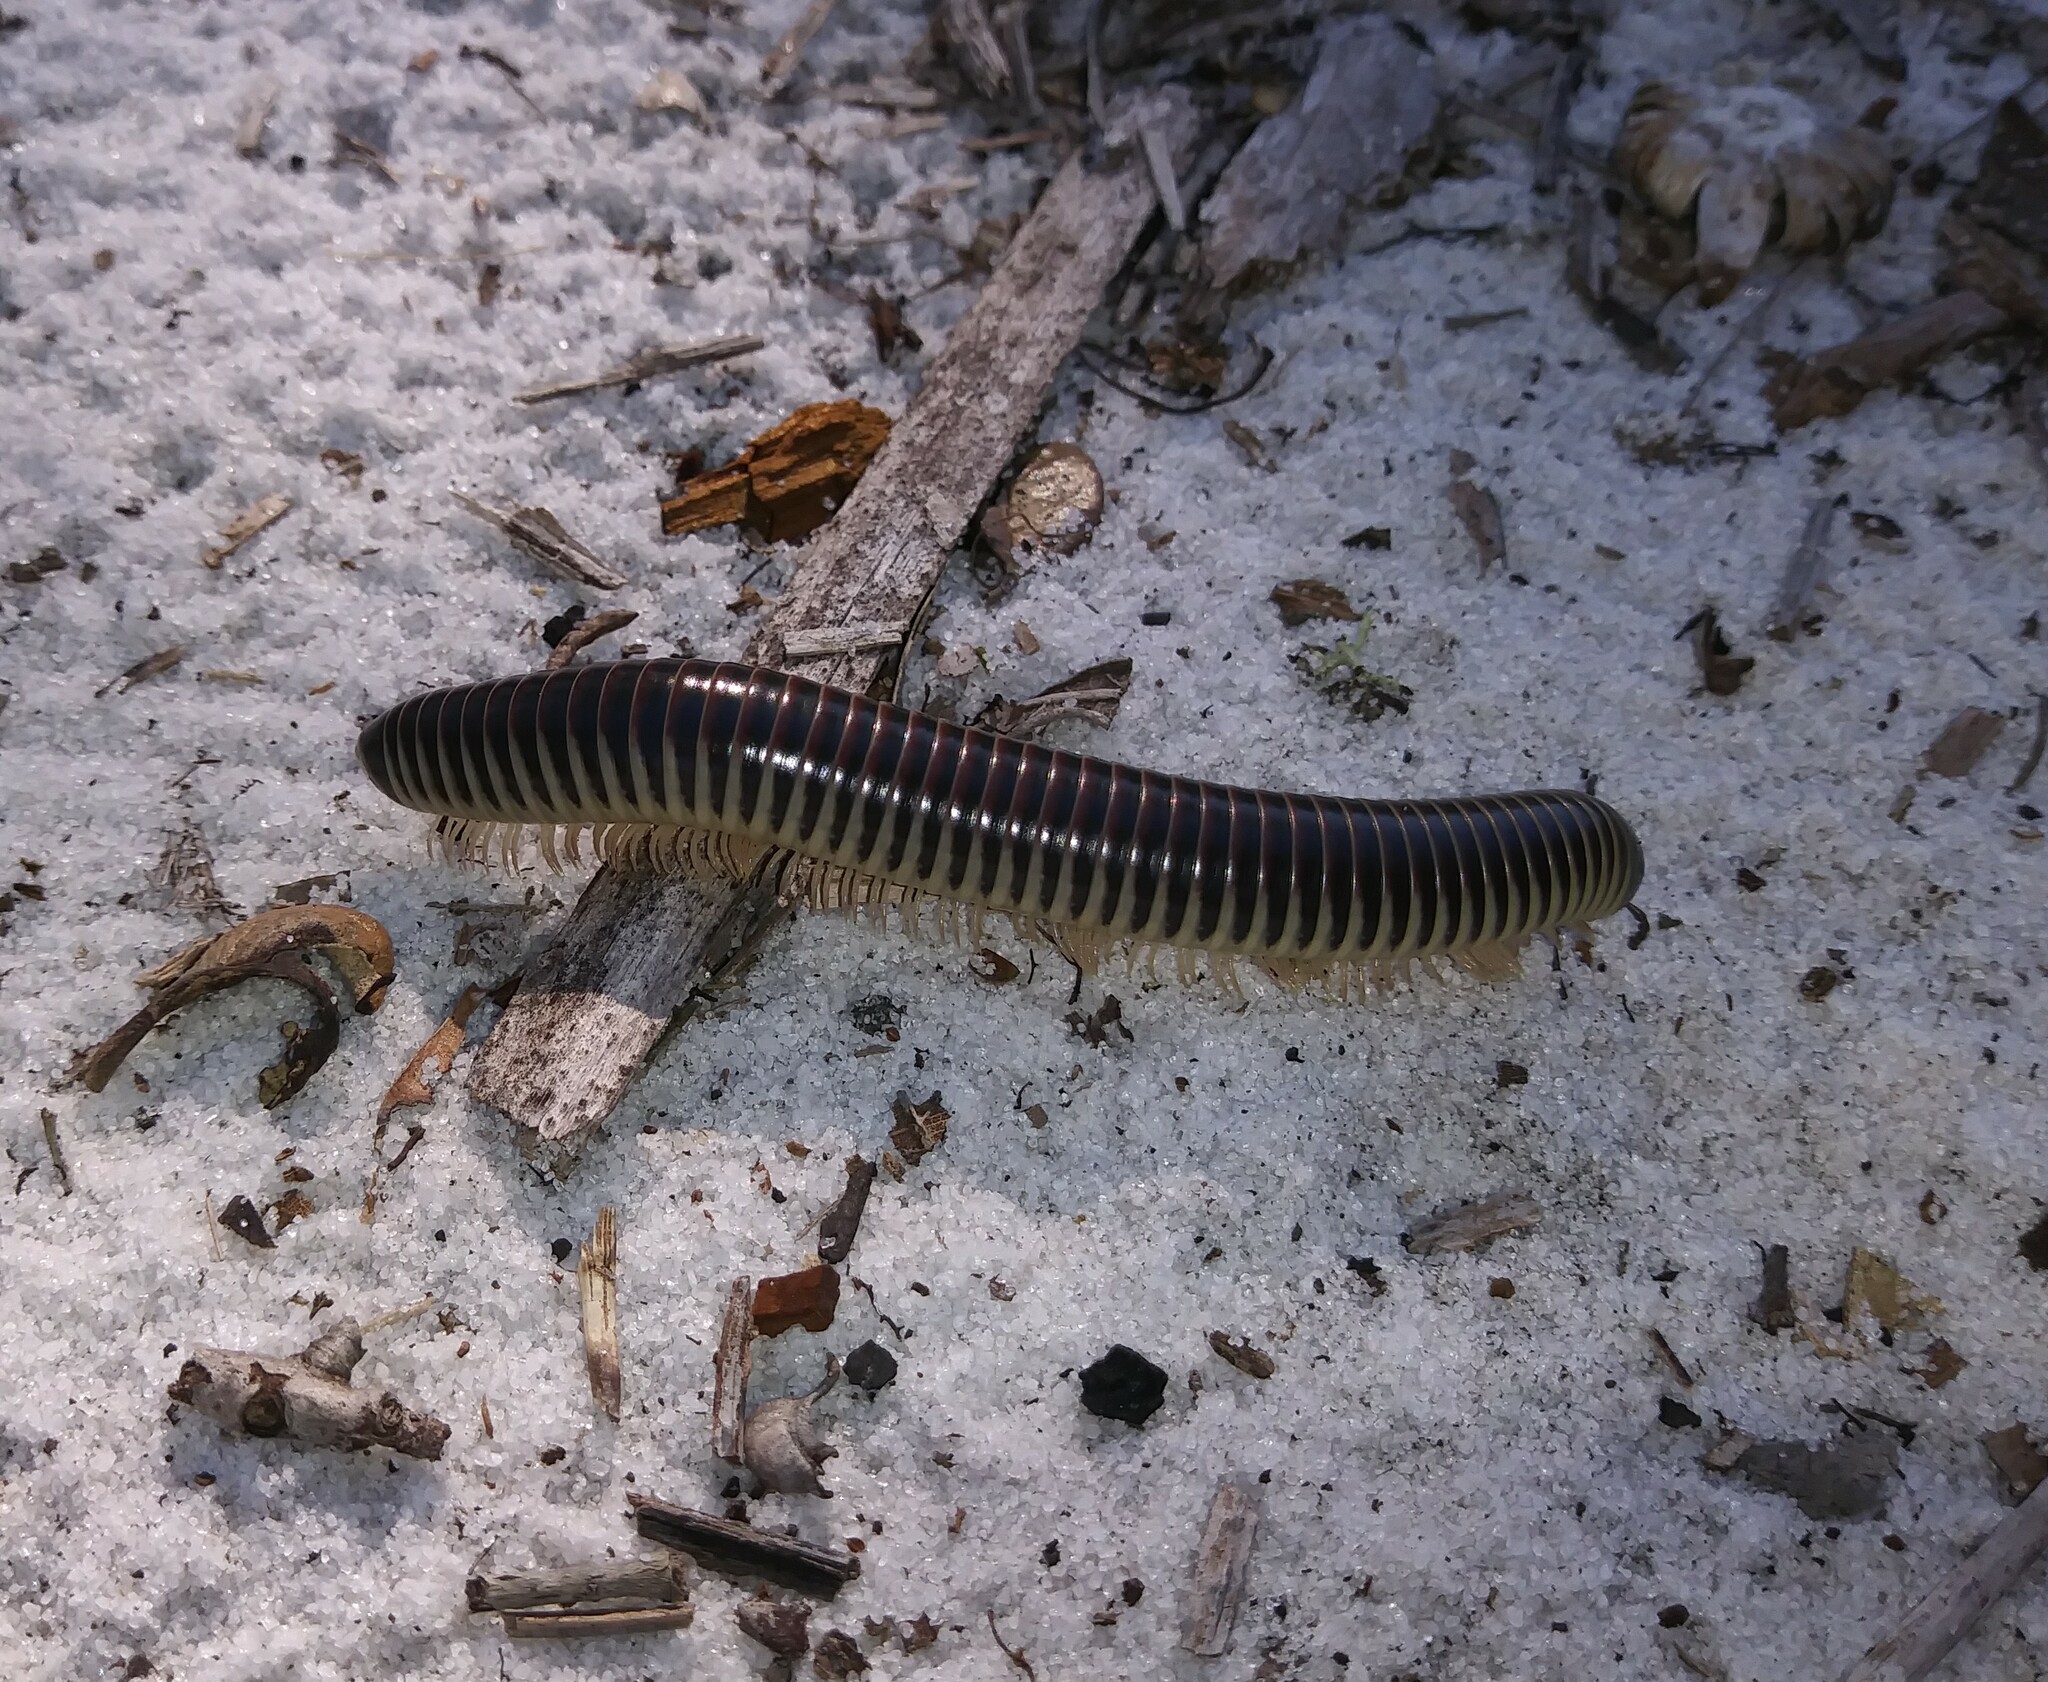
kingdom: Animalia
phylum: Arthropoda
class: Diplopoda
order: Spirobolida
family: Spirobolidae
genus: Chicobolus
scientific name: Chicobolus spinigerus
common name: Florida ivory millipede
